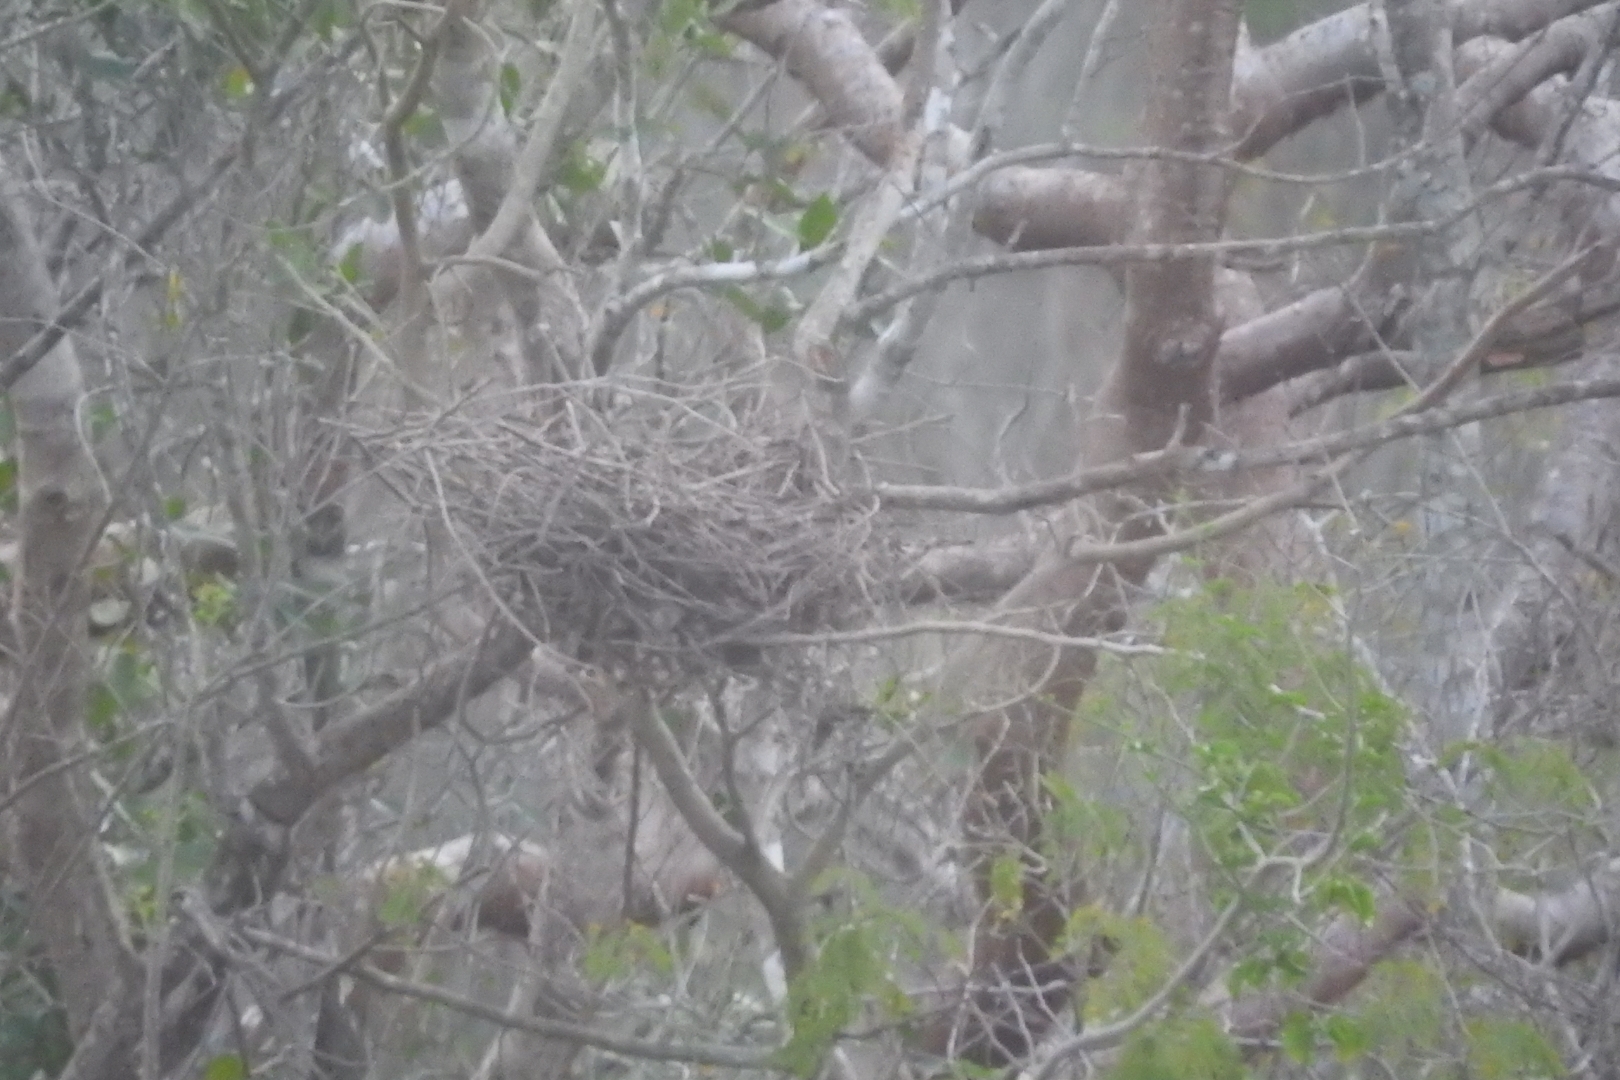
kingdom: Animalia
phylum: Chordata
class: Mammalia
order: Carnivora
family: Procyonidae
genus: Nasua
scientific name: Nasua narica
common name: White-nosed coati
